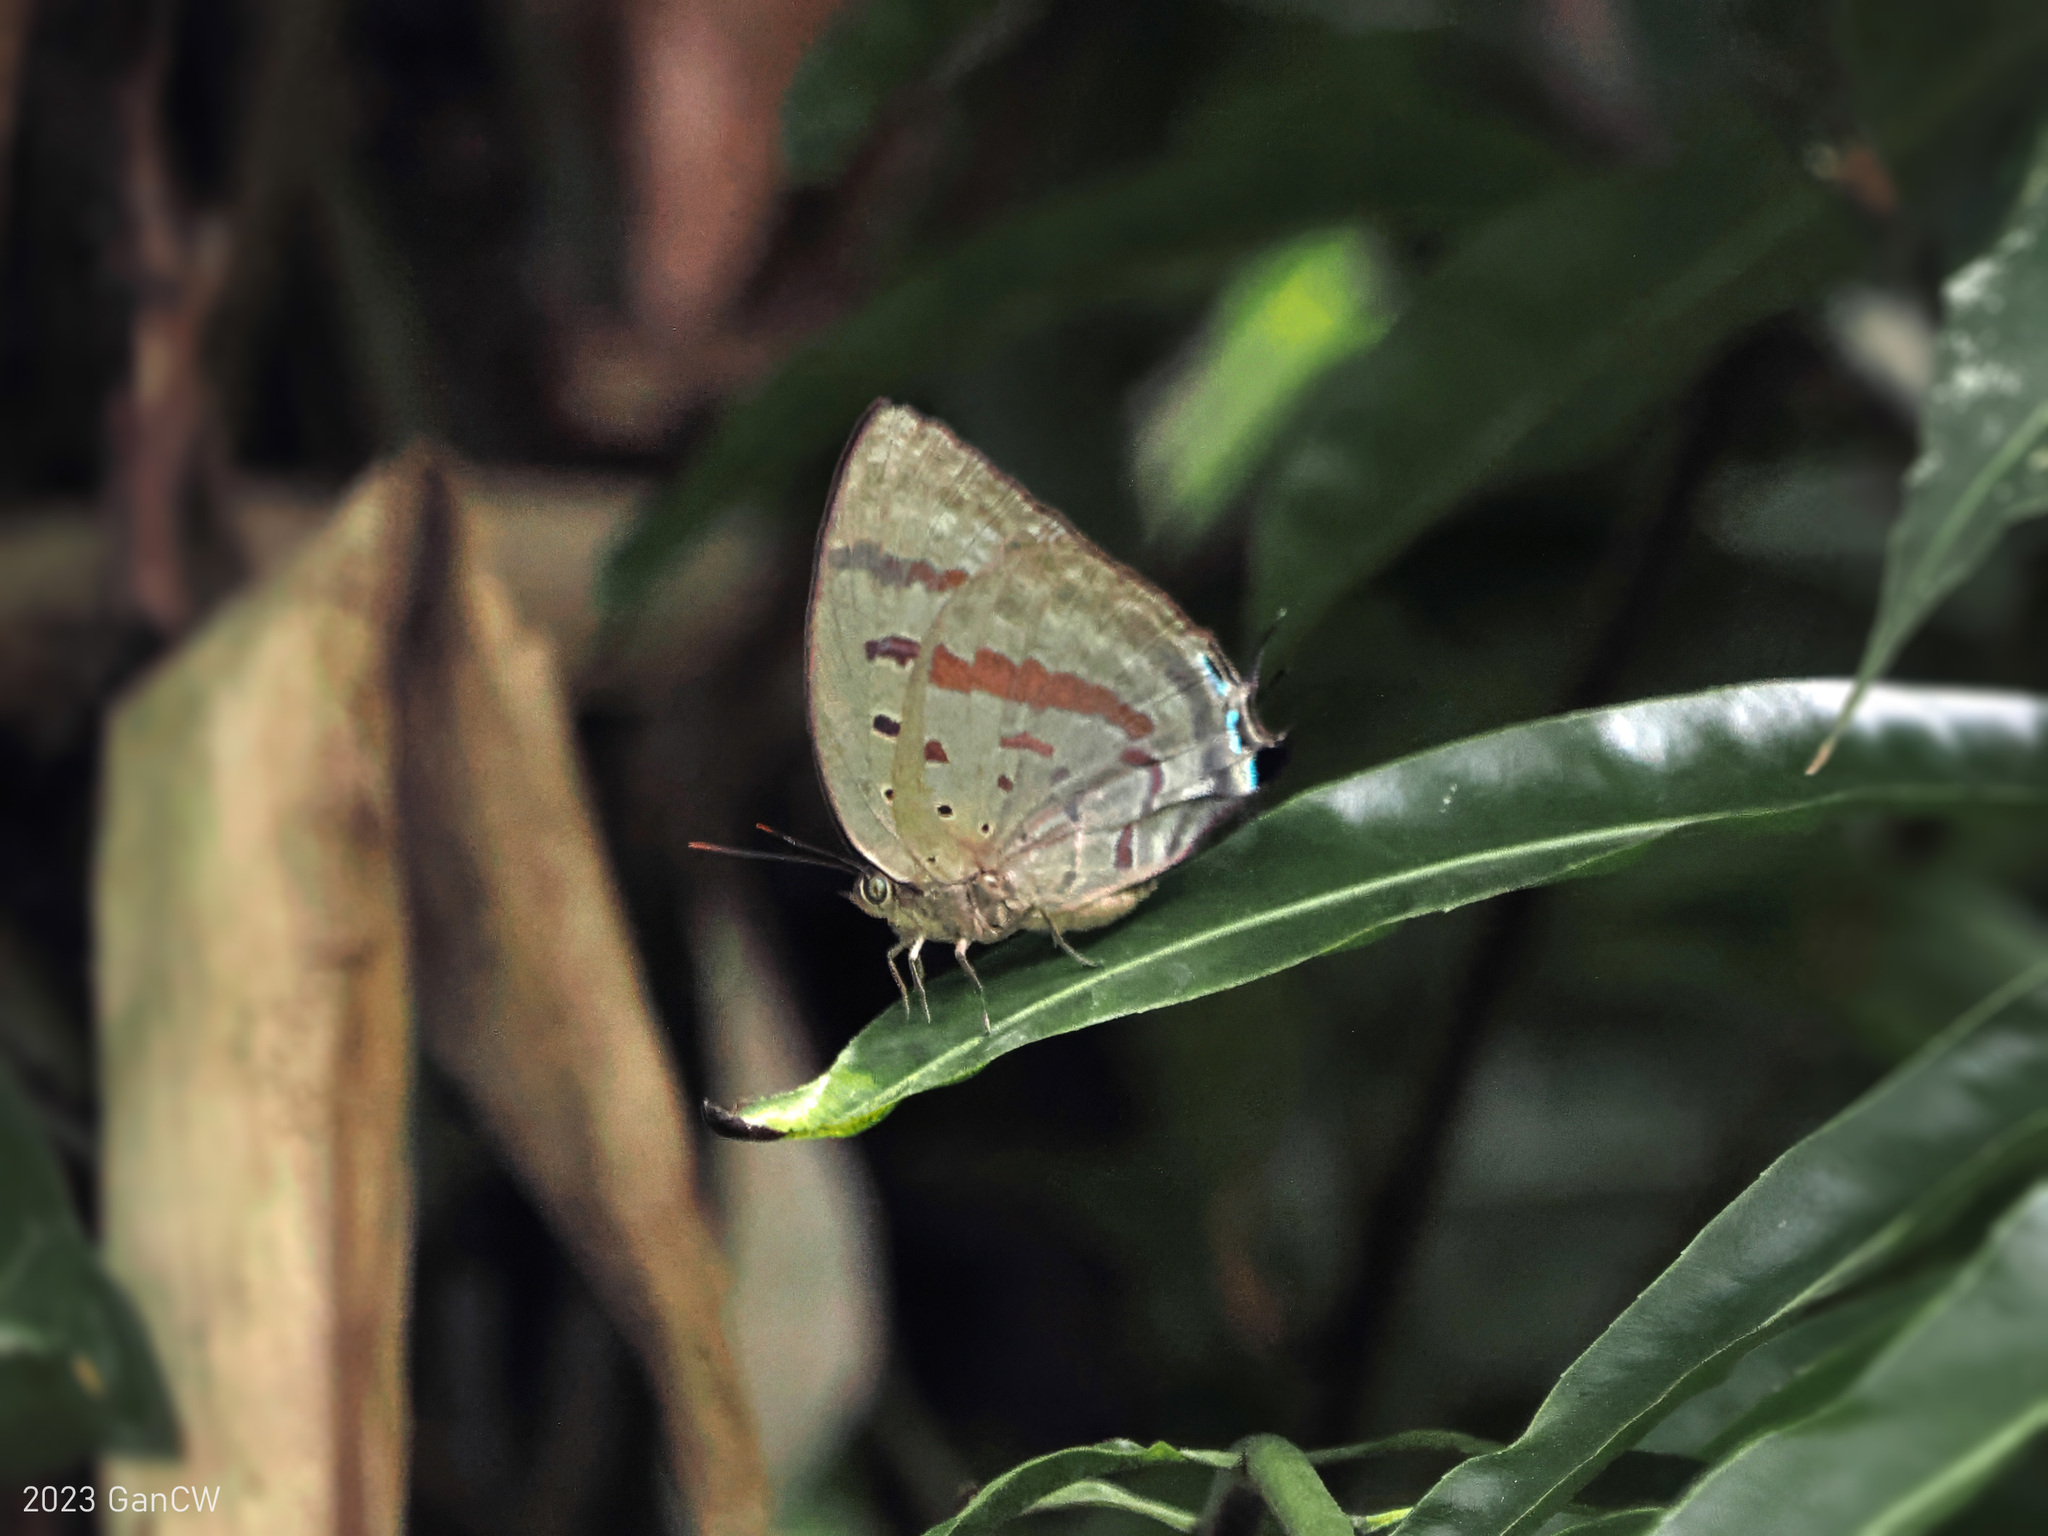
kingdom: Animalia
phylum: Arthropoda
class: Insecta
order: Lepidoptera
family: Lycaenidae
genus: Arhopala
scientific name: Arhopala hercules
